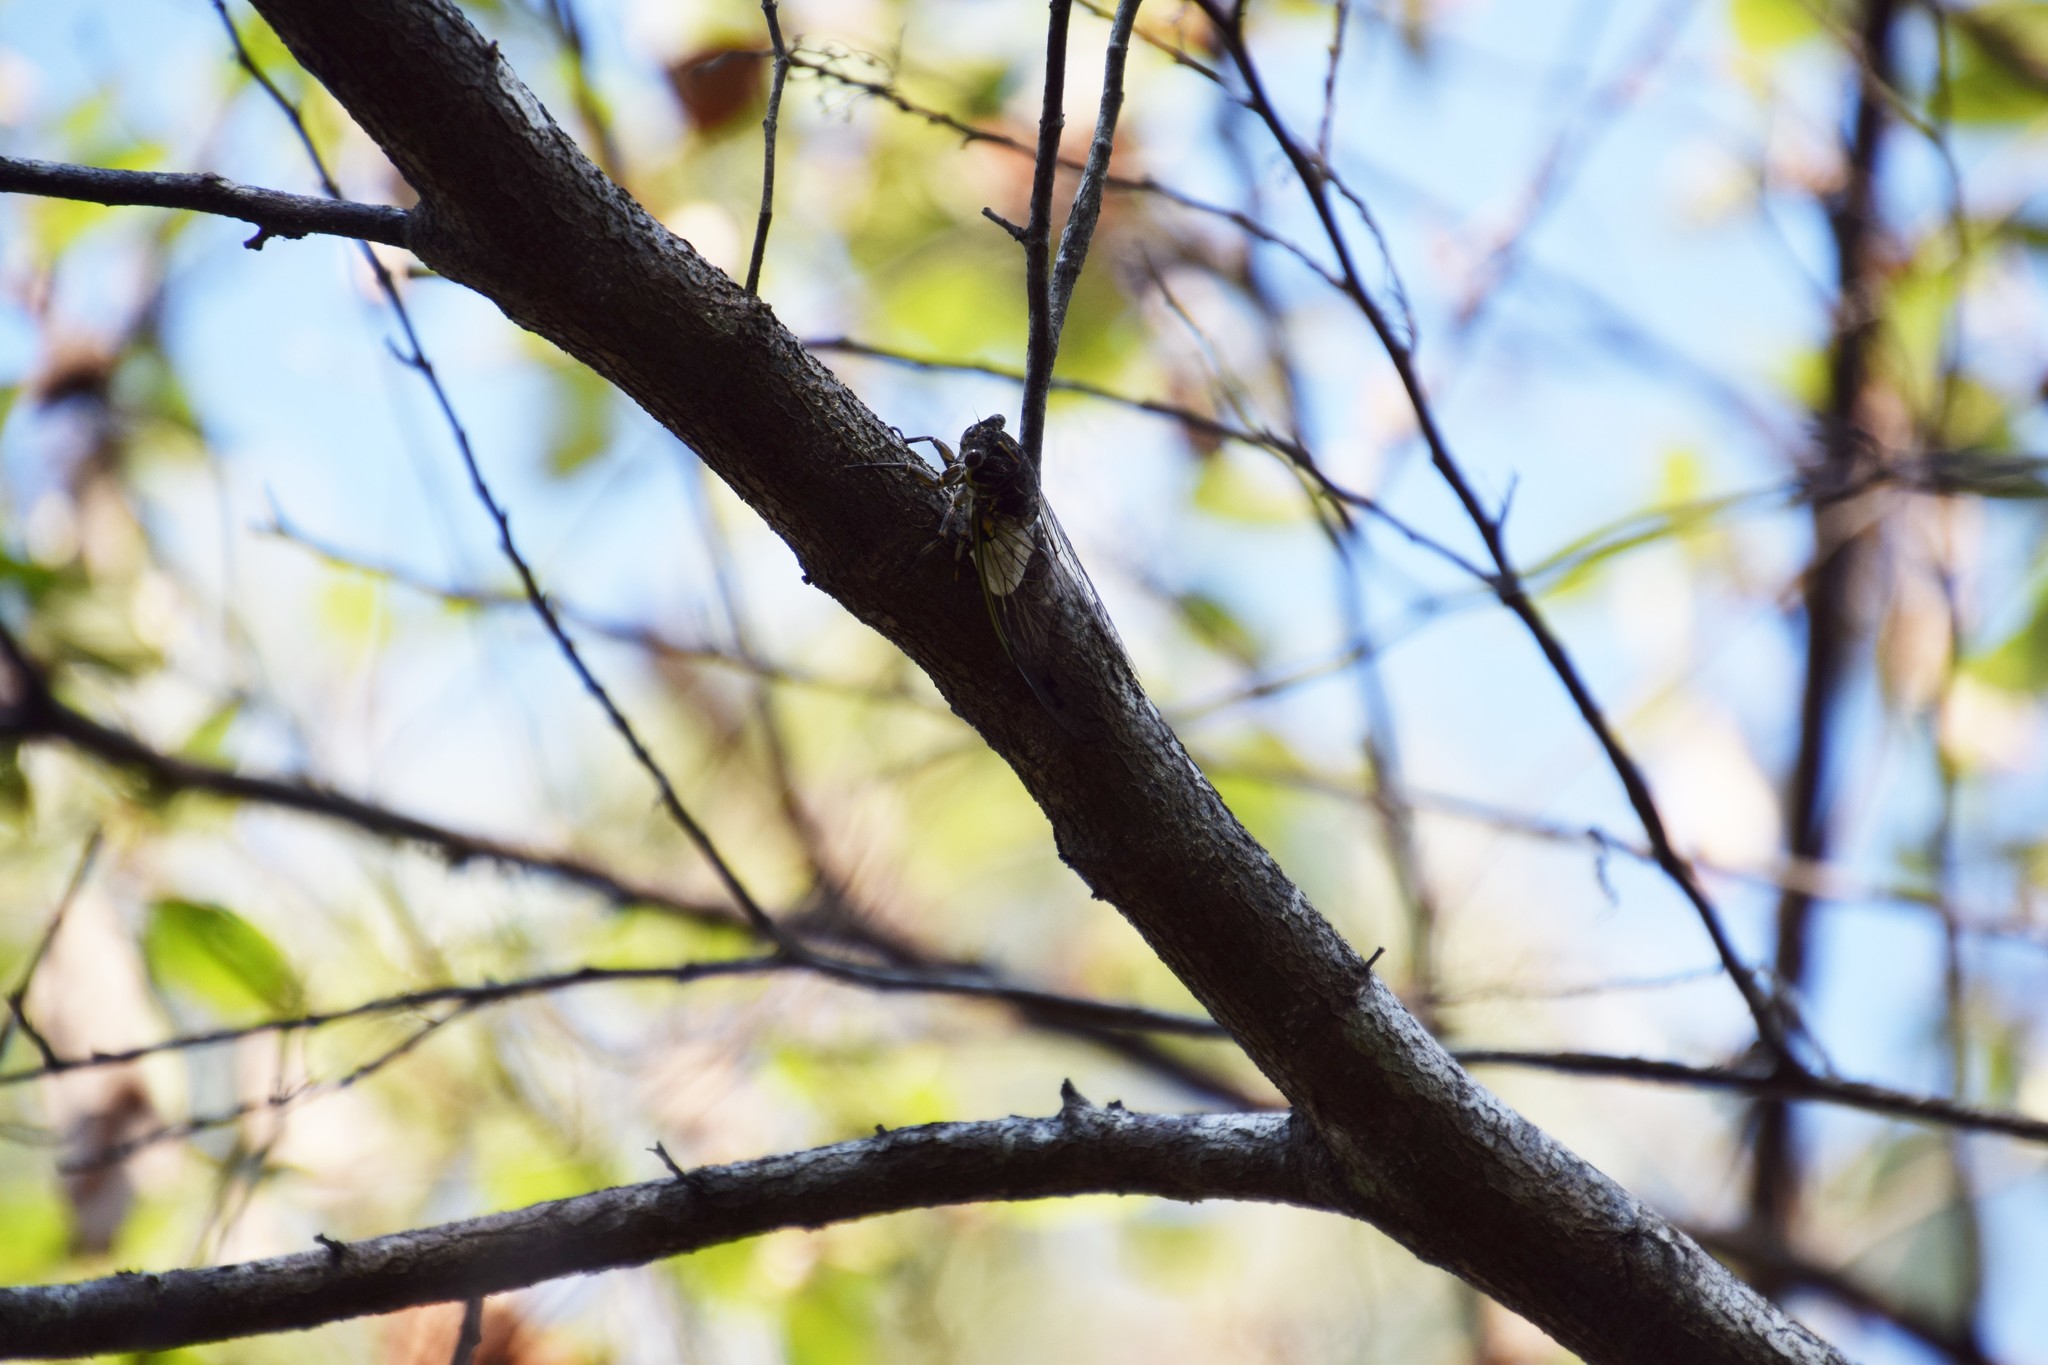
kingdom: Animalia
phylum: Arthropoda
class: Insecta
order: Hemiptera
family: Cicadidae
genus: Arunta
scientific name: Arunta perulata
